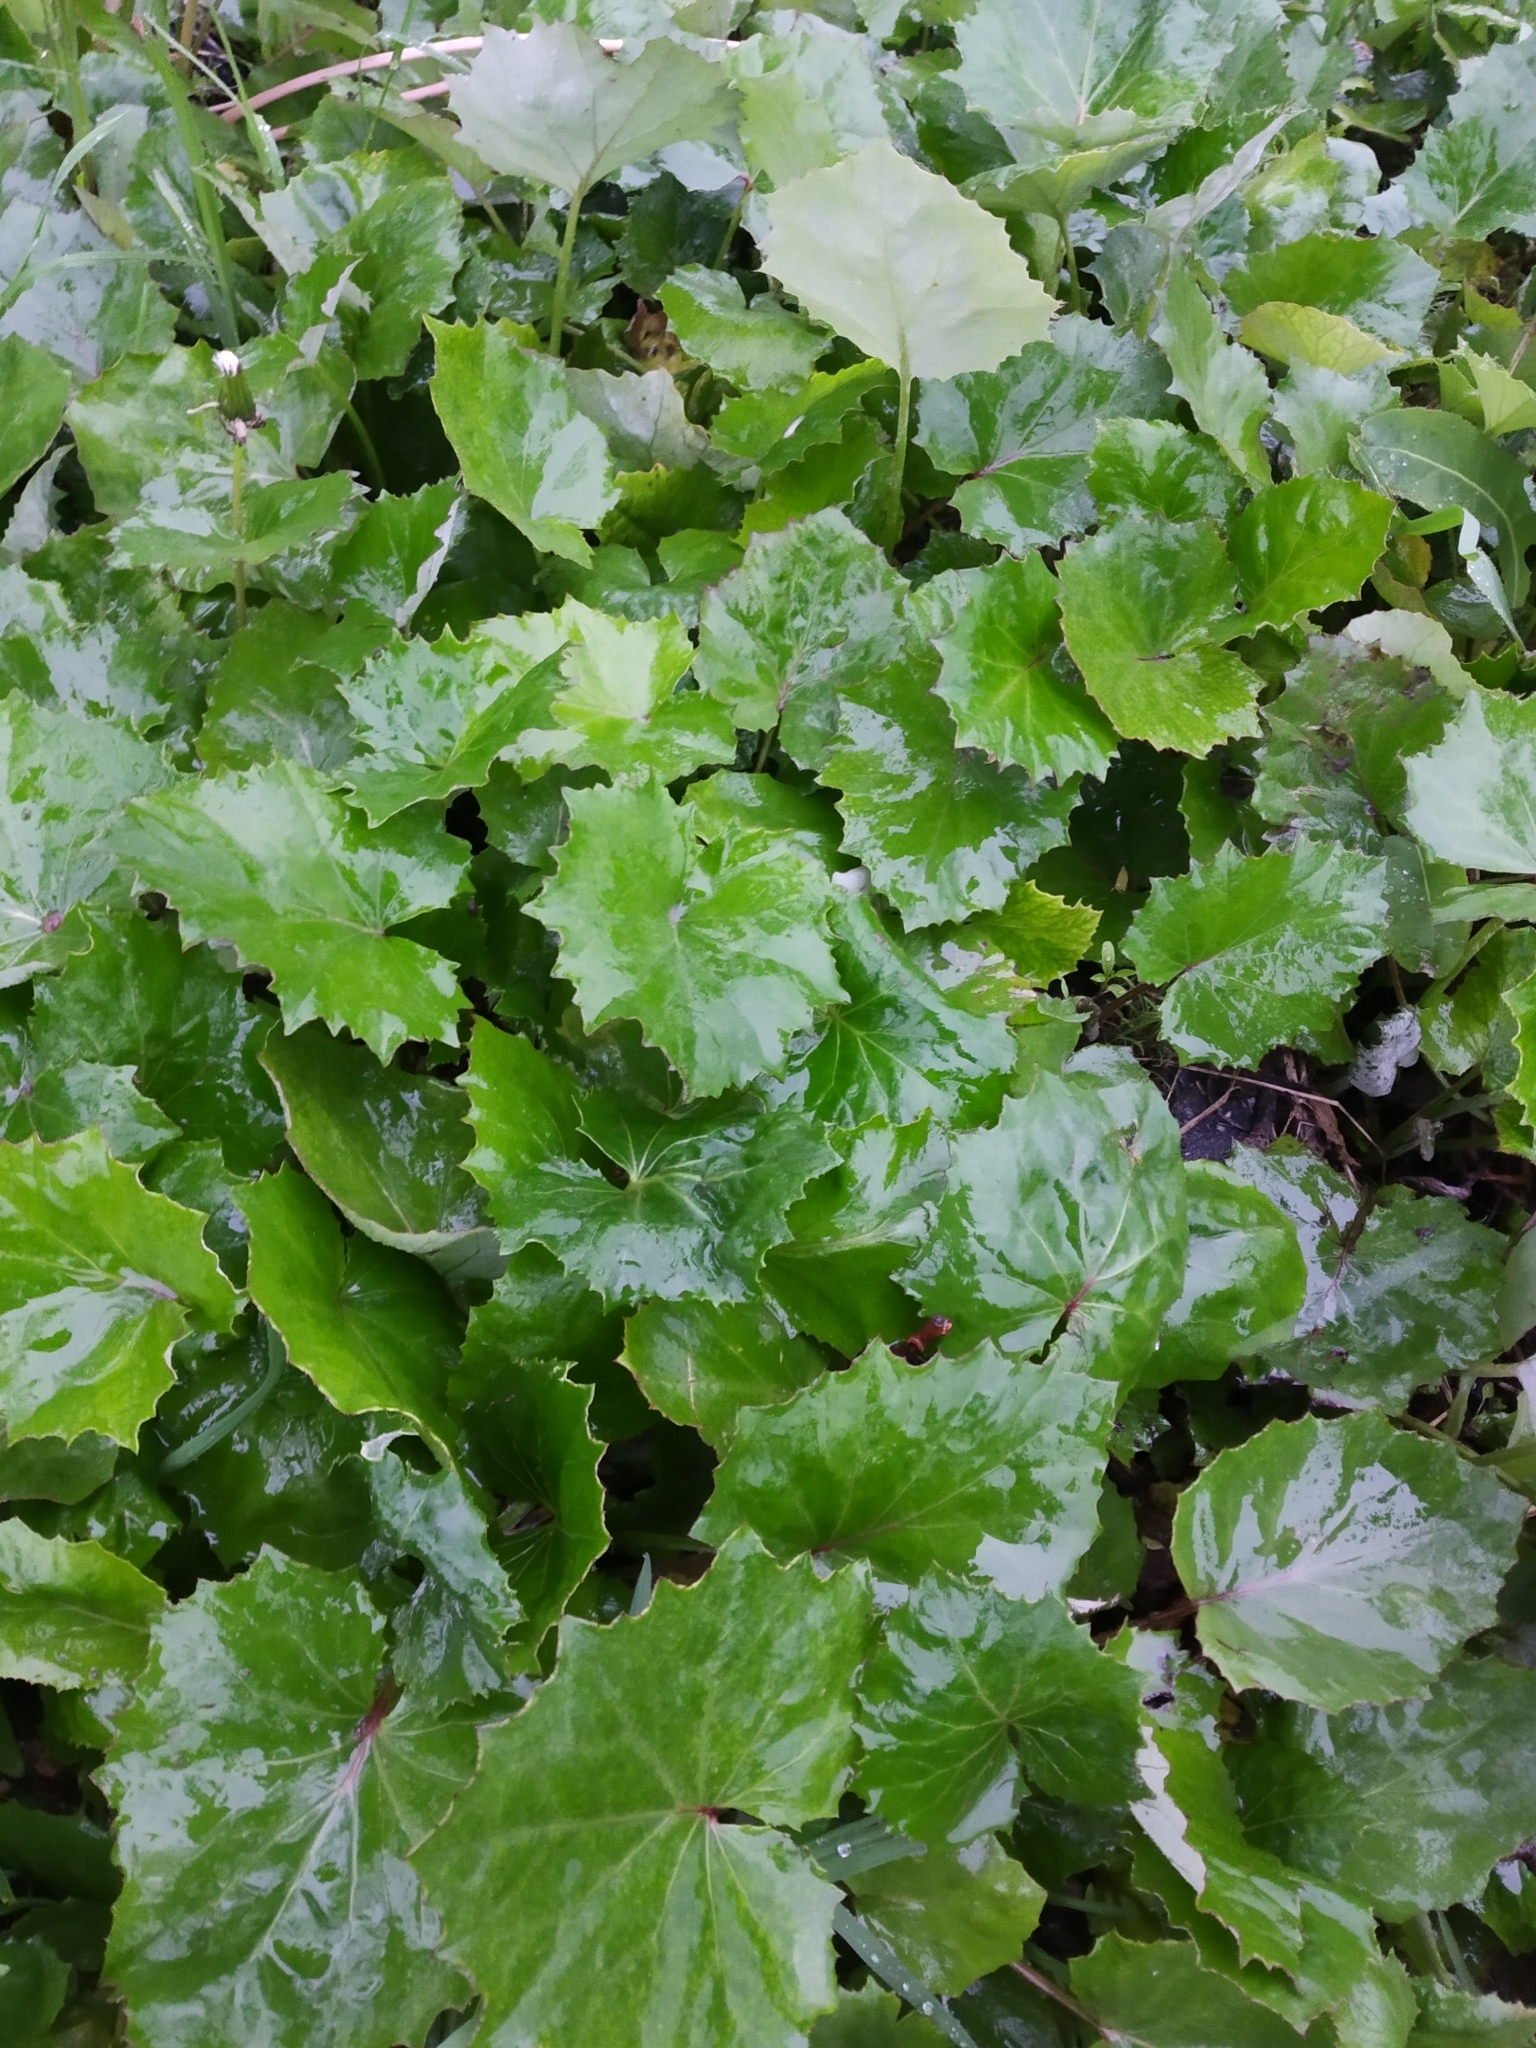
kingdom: Plantae
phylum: Tracheophyta
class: Magnoliopsida
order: Asterales
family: Asteraceae
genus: Tussilago
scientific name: Tussilago farfara
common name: Coltsfoot
